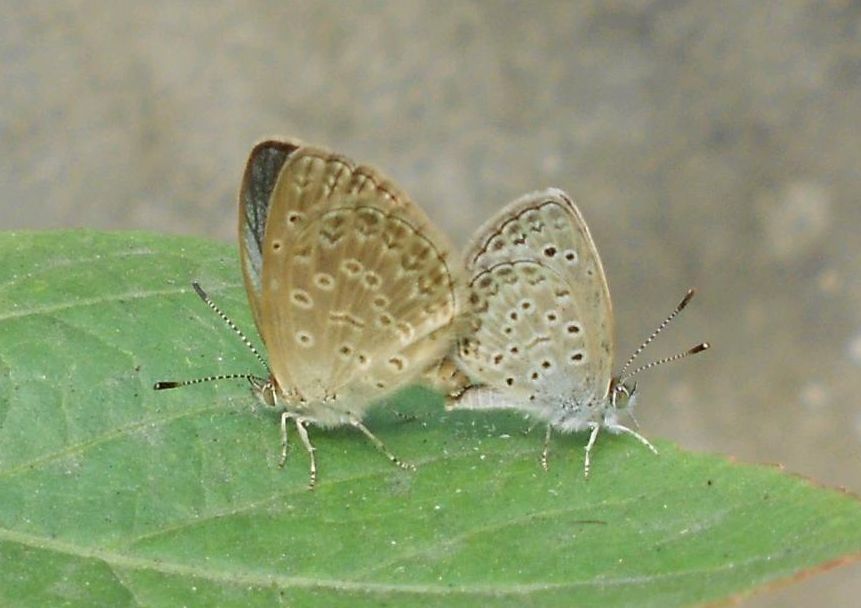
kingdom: Animalia
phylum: Arthropoda
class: Insecta
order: Lepidoptera
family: Lycaenidae
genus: Pseudozizeeria
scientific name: Pseudozizeeria maha
